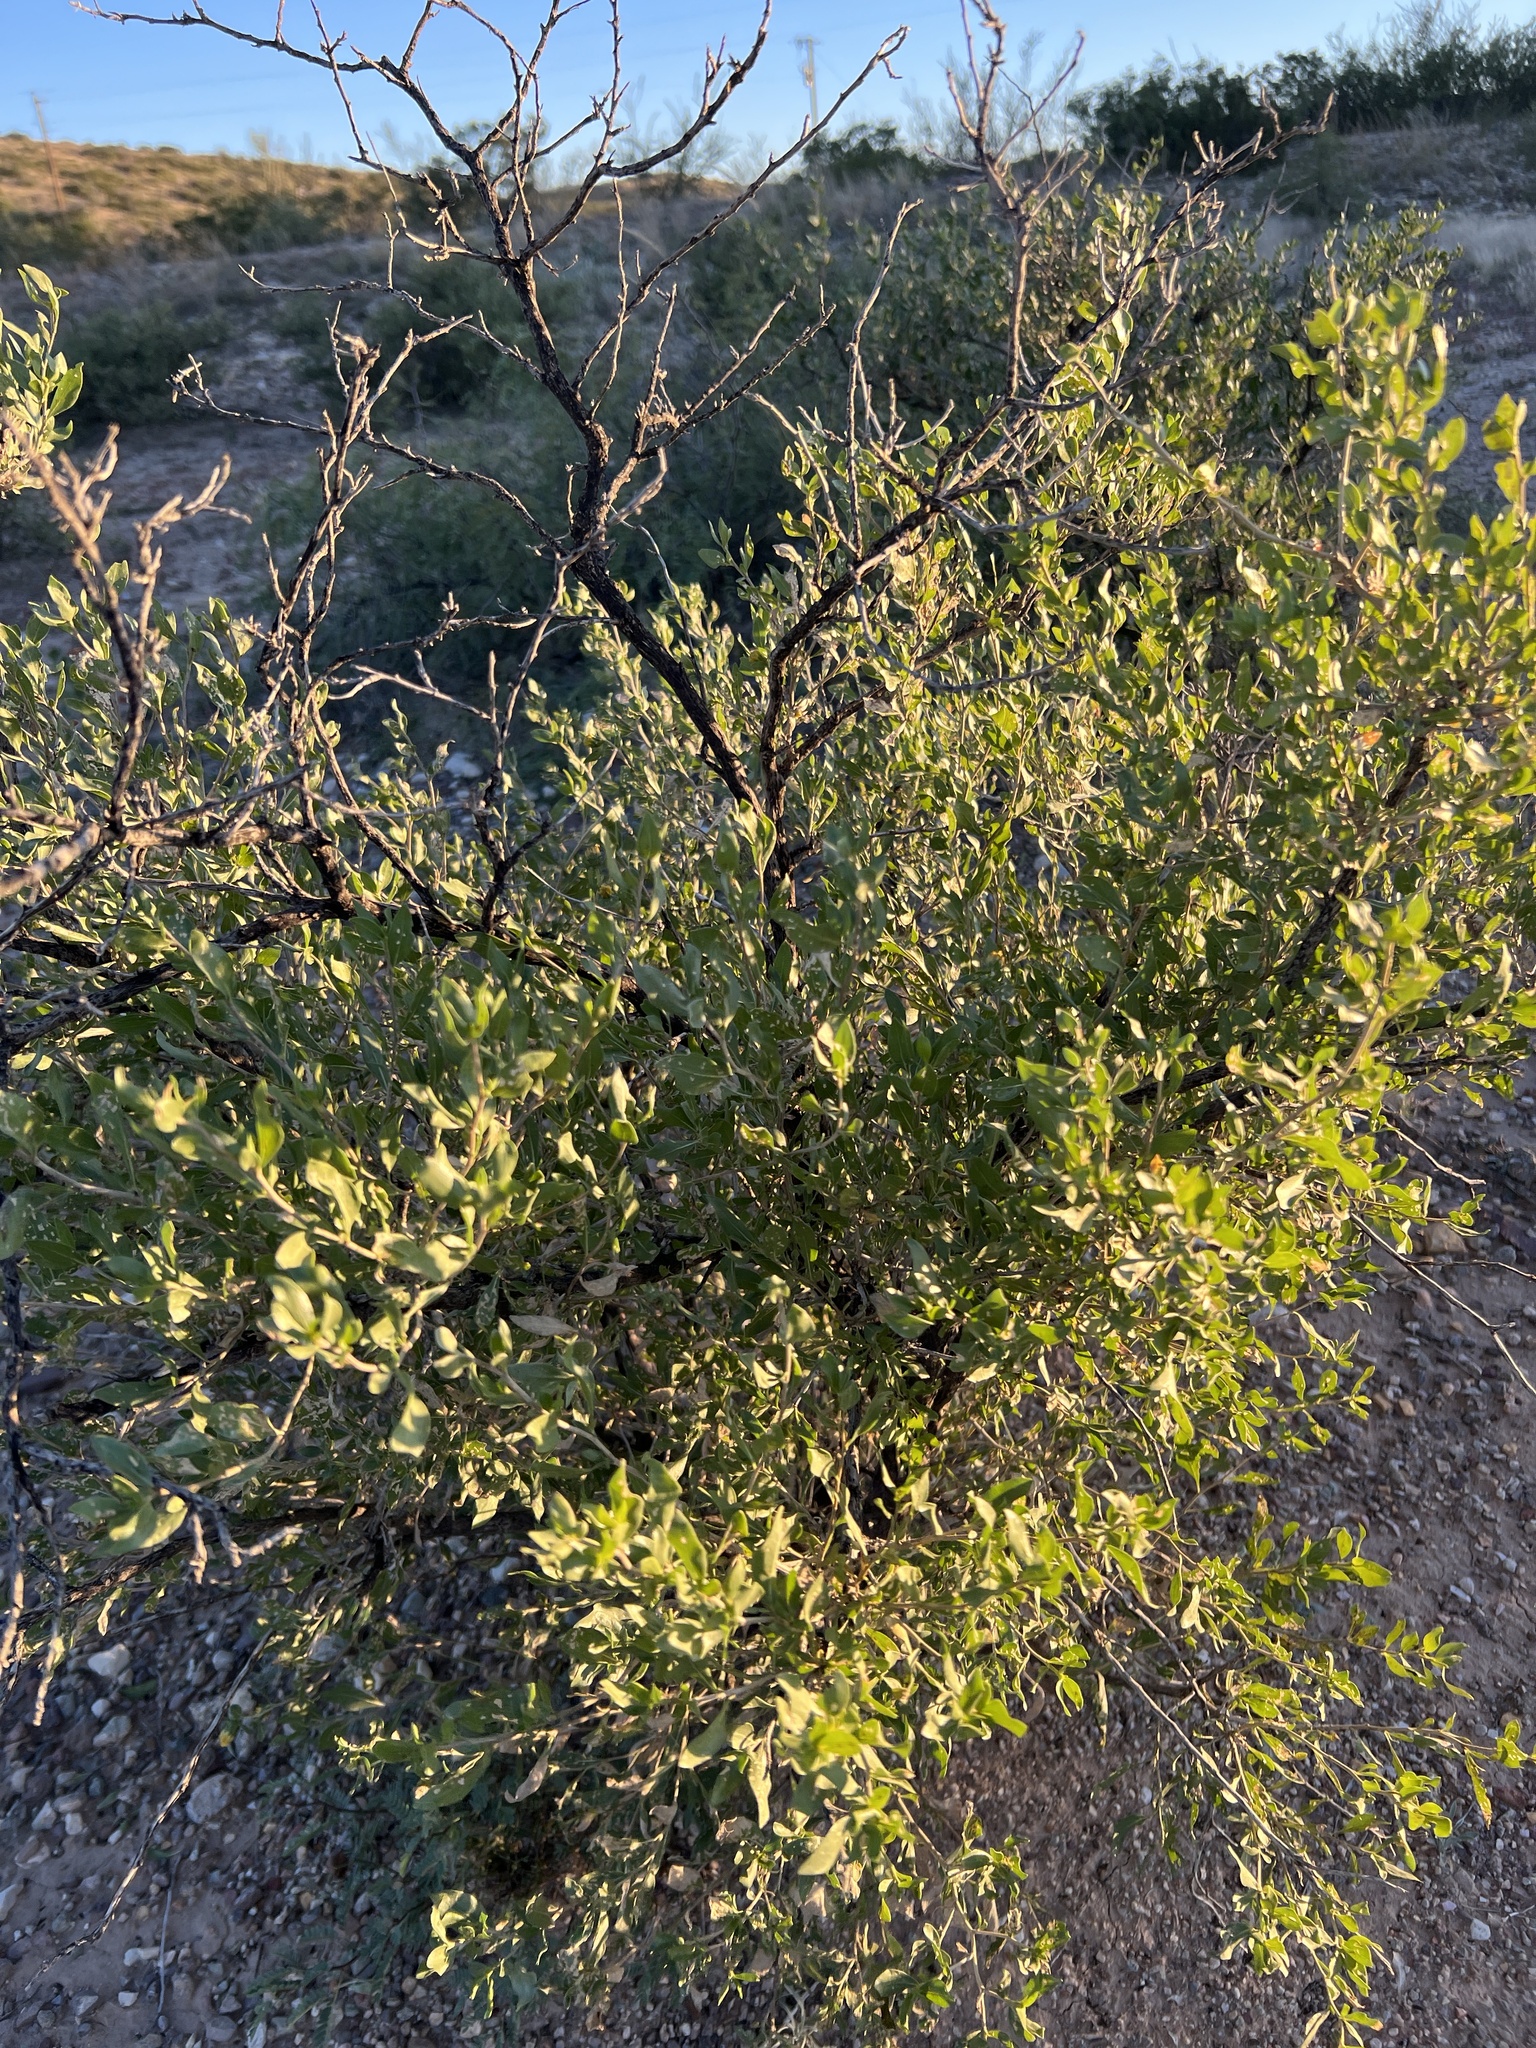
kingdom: Plantae
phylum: Tracheophyta
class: Magnoliopsida
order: Asterales
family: Asteraceae
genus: Flourensia
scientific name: Flourensia cernua
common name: Varnishbush
